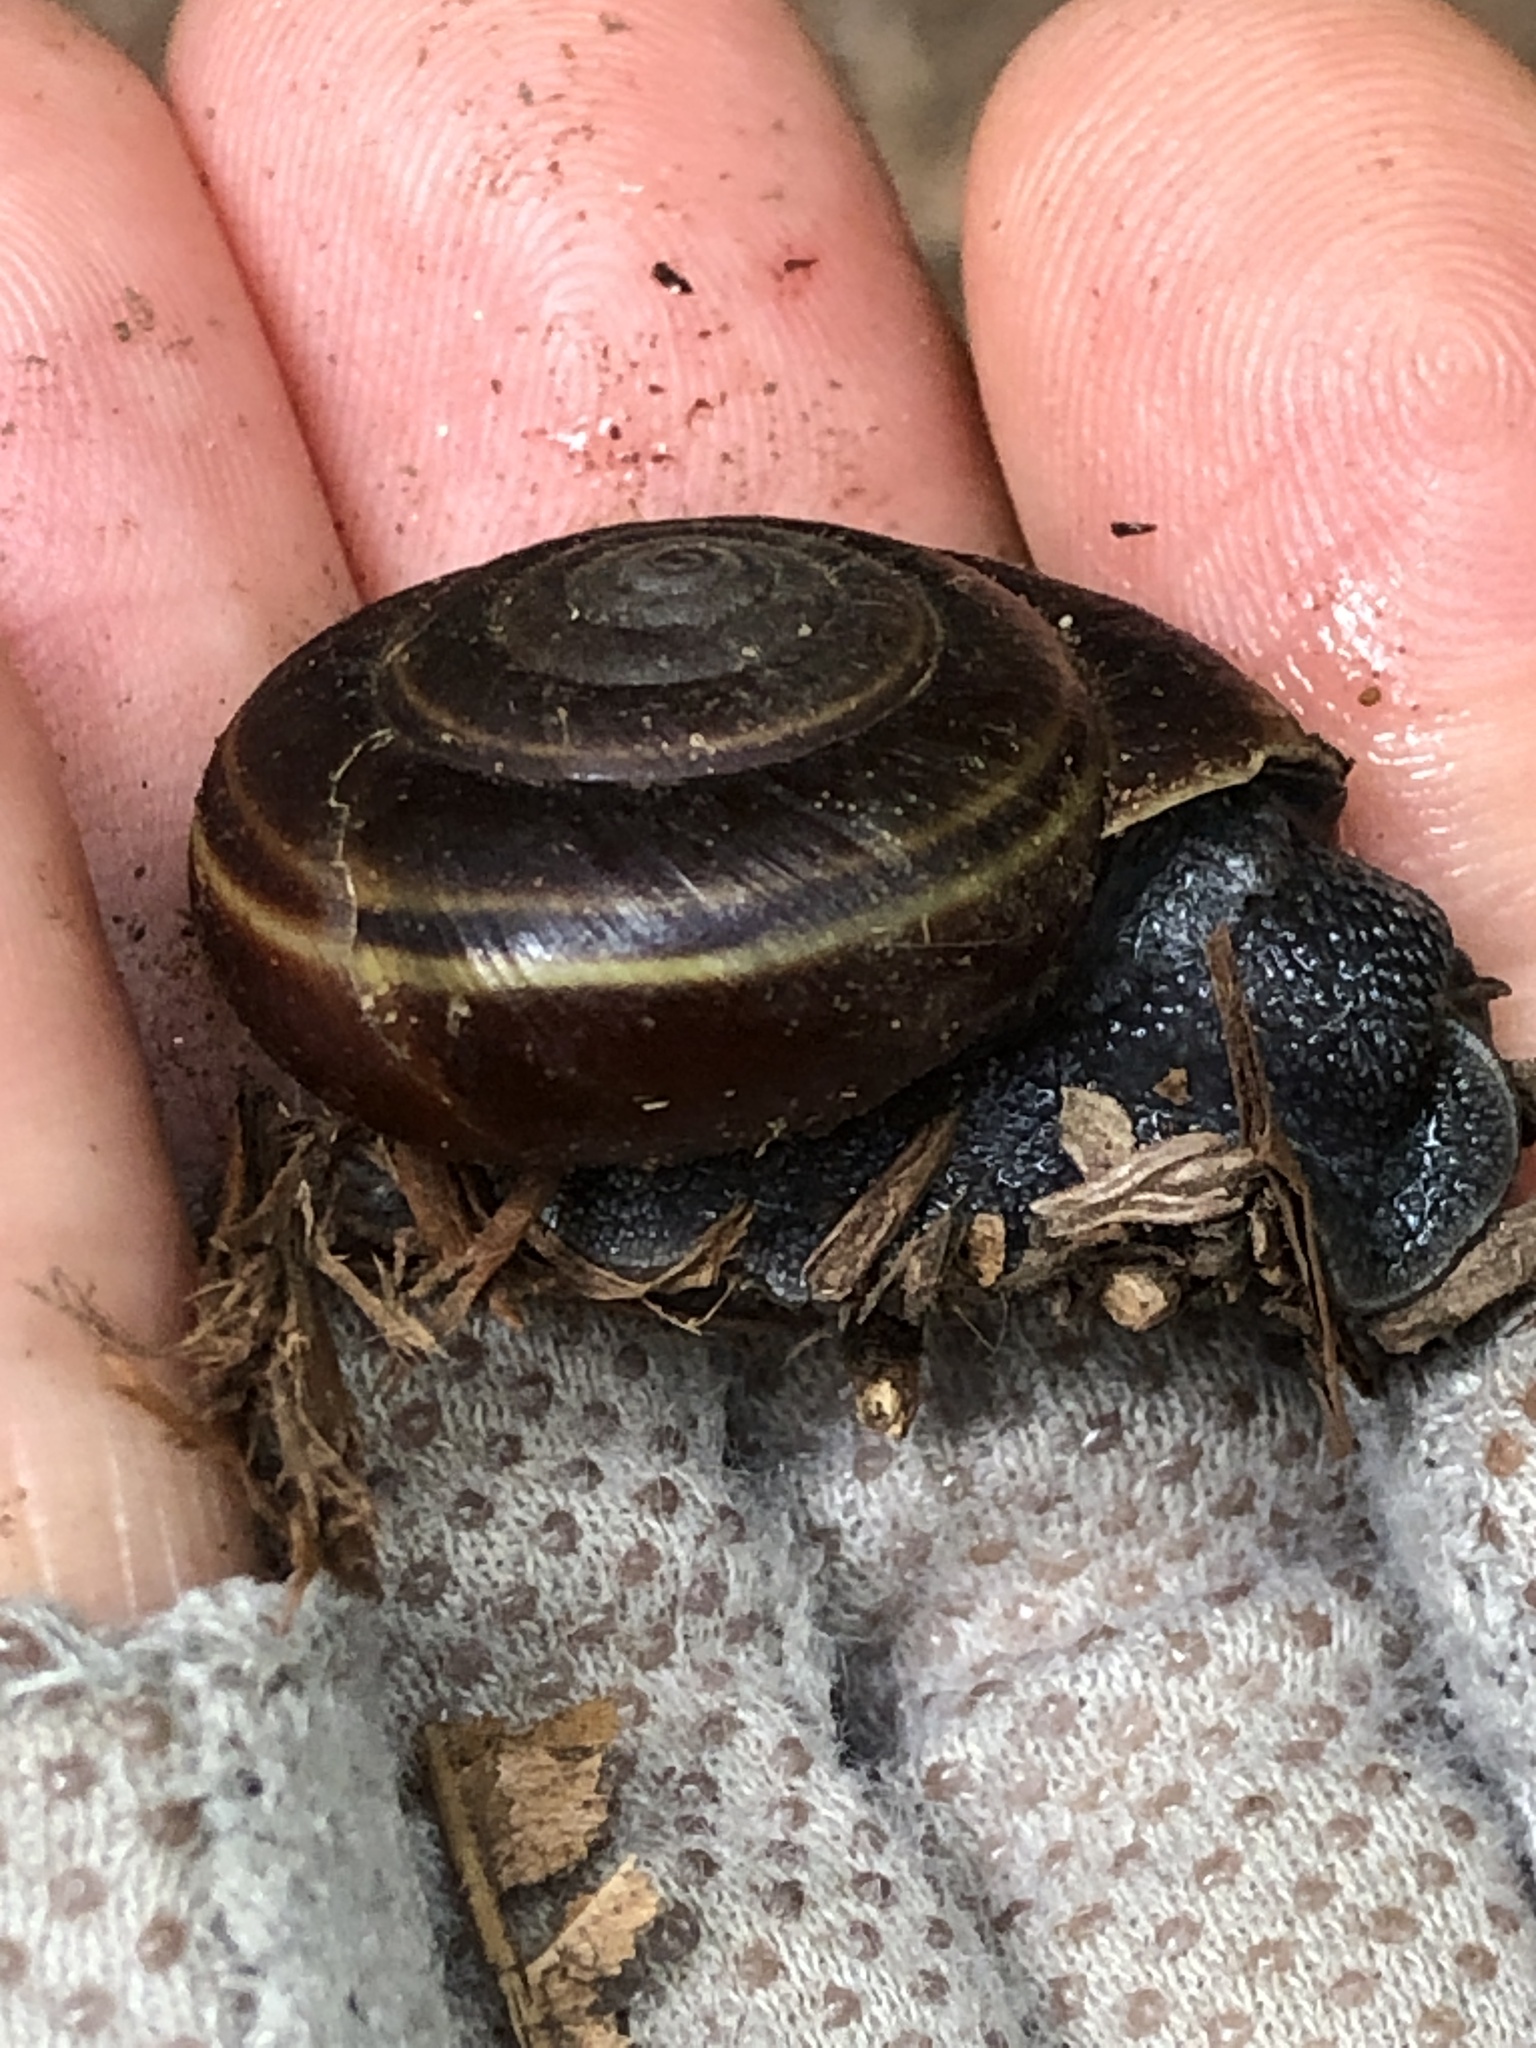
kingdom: Animalia
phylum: Mollusca
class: Gastropoda
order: Stylommatophora
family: Xanthonychidae
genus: Helminthoglypta
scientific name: Helminthoglypta sequoicola
